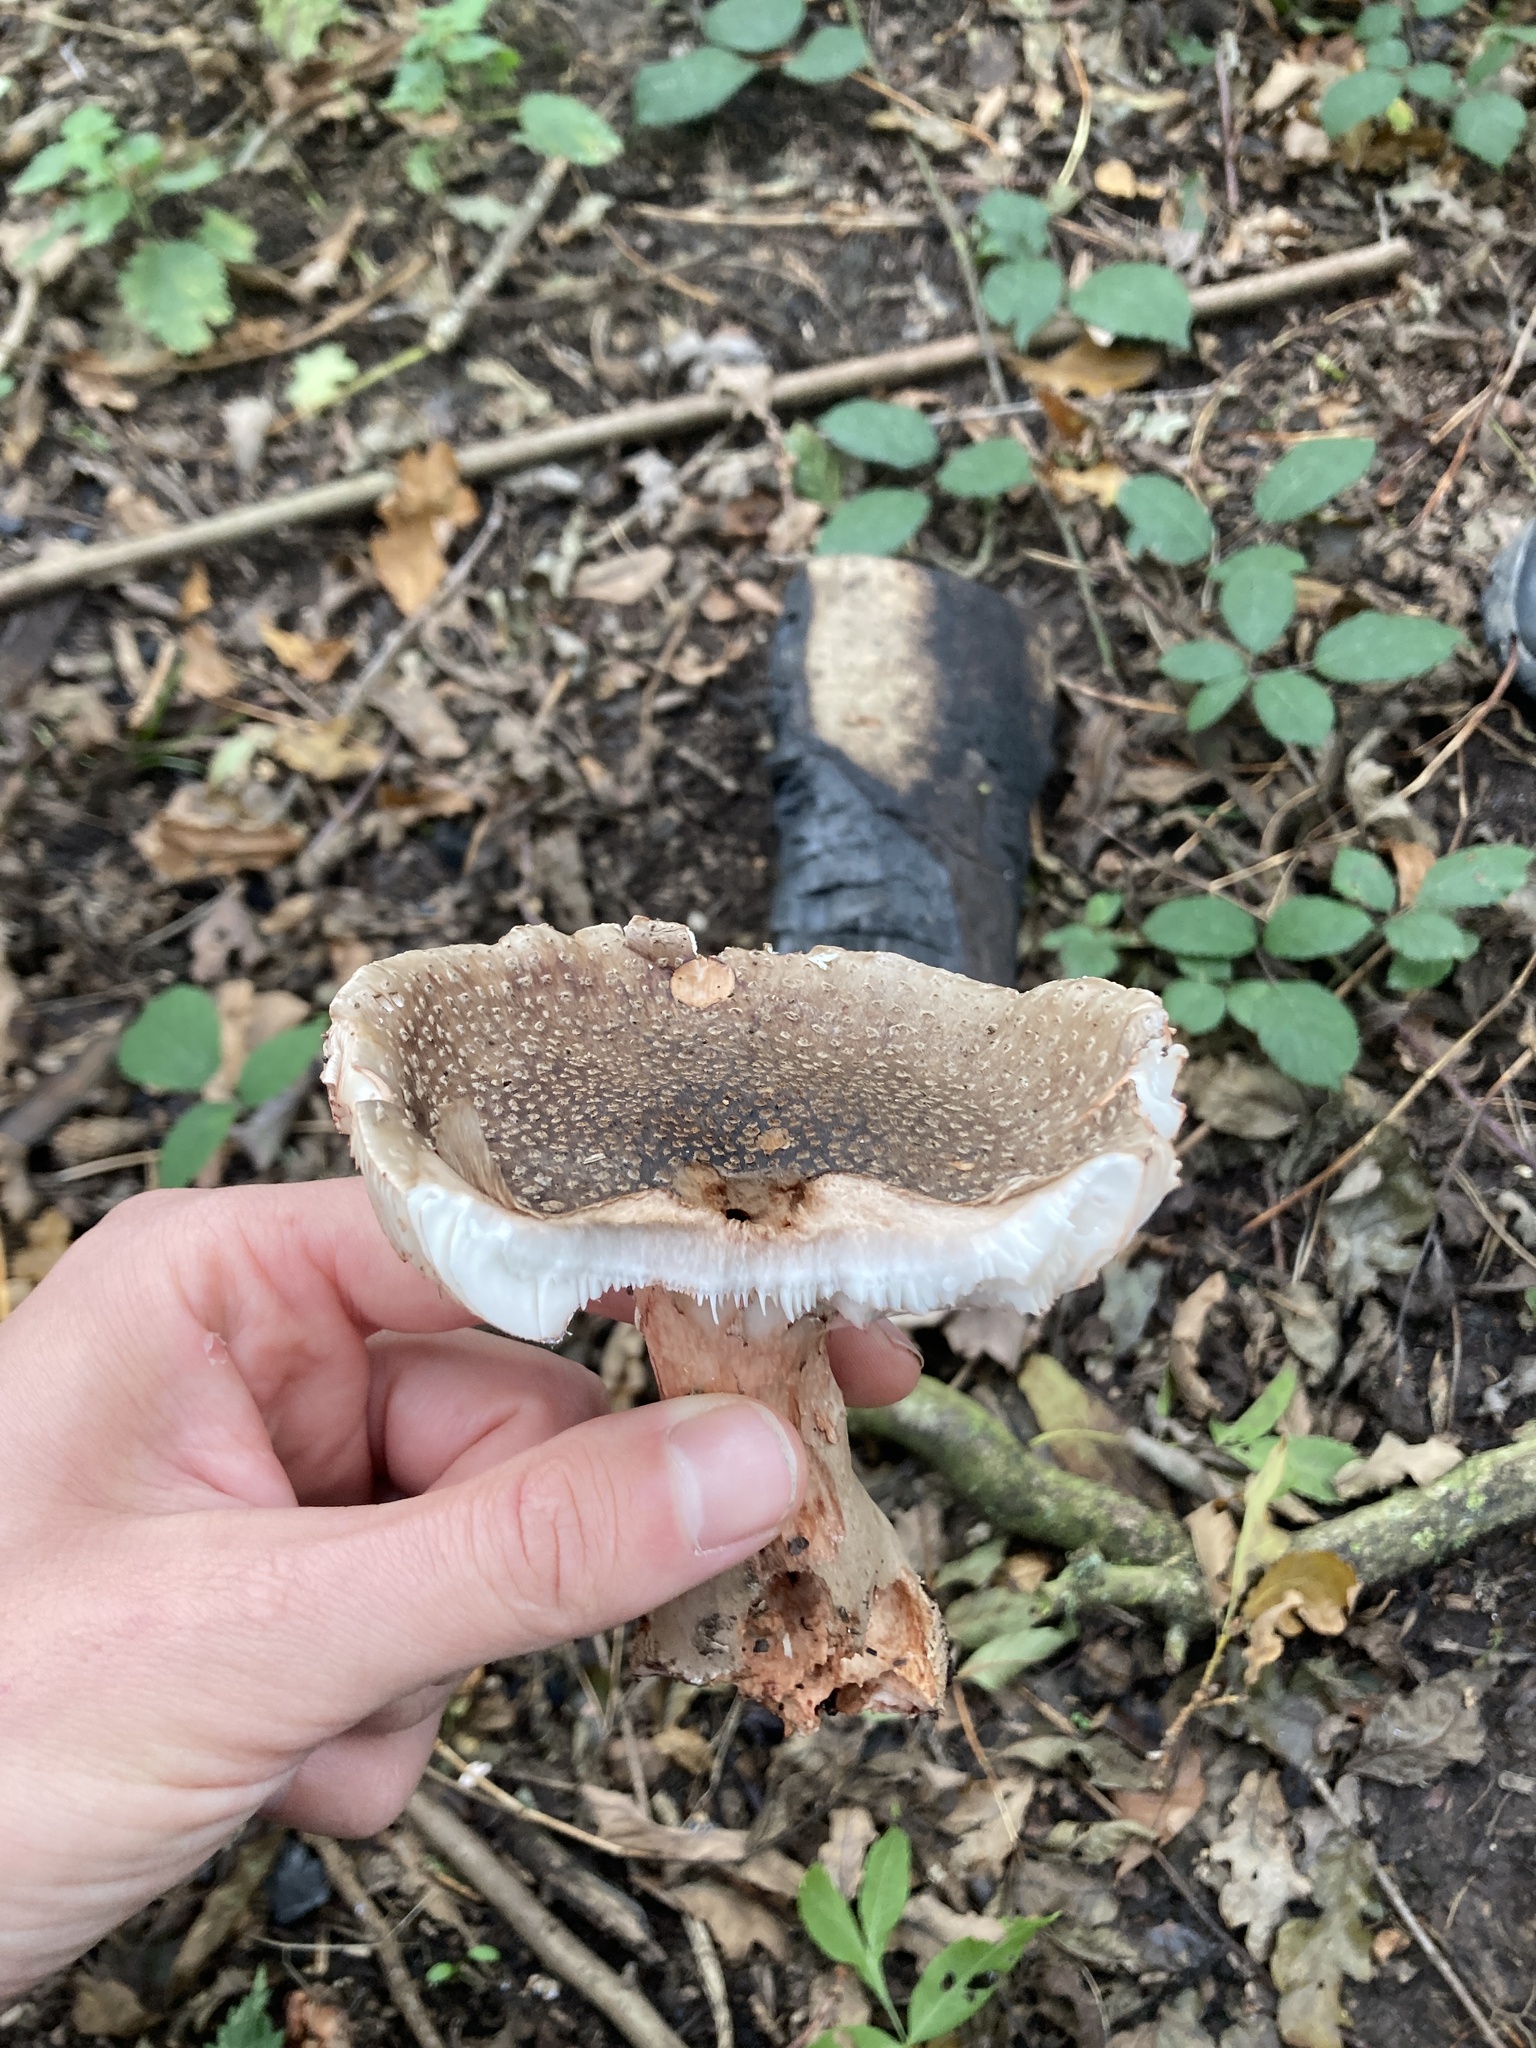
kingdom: Fungi
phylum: Basidiomycota
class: Agaricomycetes
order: Agaricales
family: Amanitaceae
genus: Amanita
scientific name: Amanita rubescens
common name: Blusher
